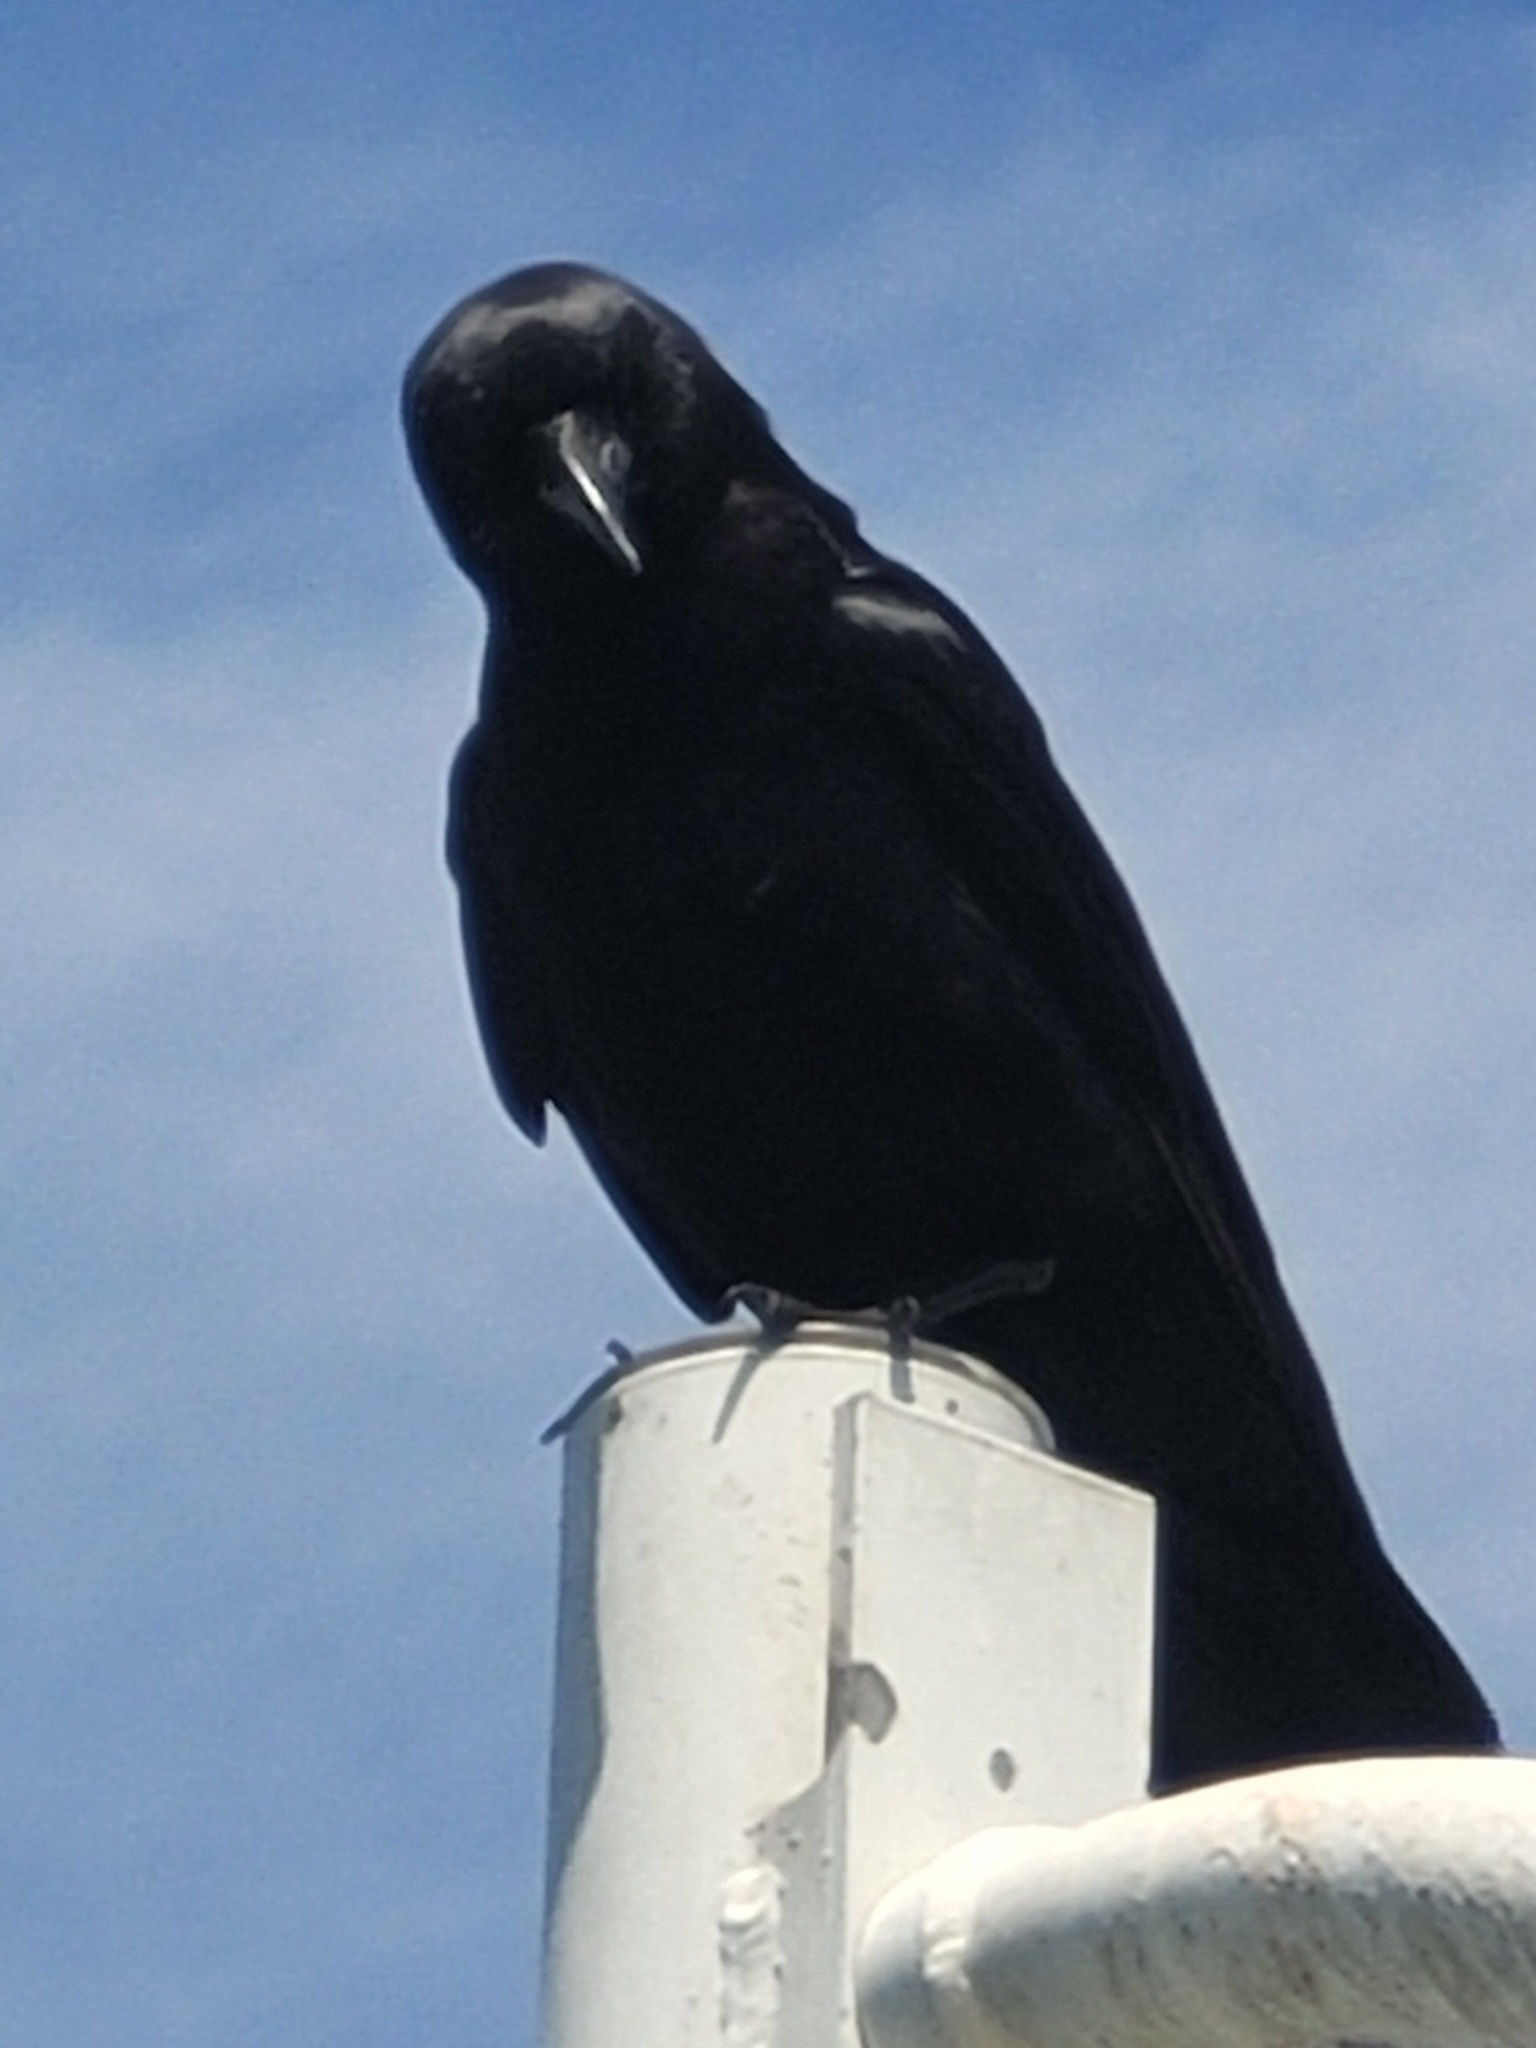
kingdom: Animalia
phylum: Chordata
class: Aves
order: Passeriformes
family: Corvidae
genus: Corvus
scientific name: Corvus brachyrhynchos
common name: American crow
